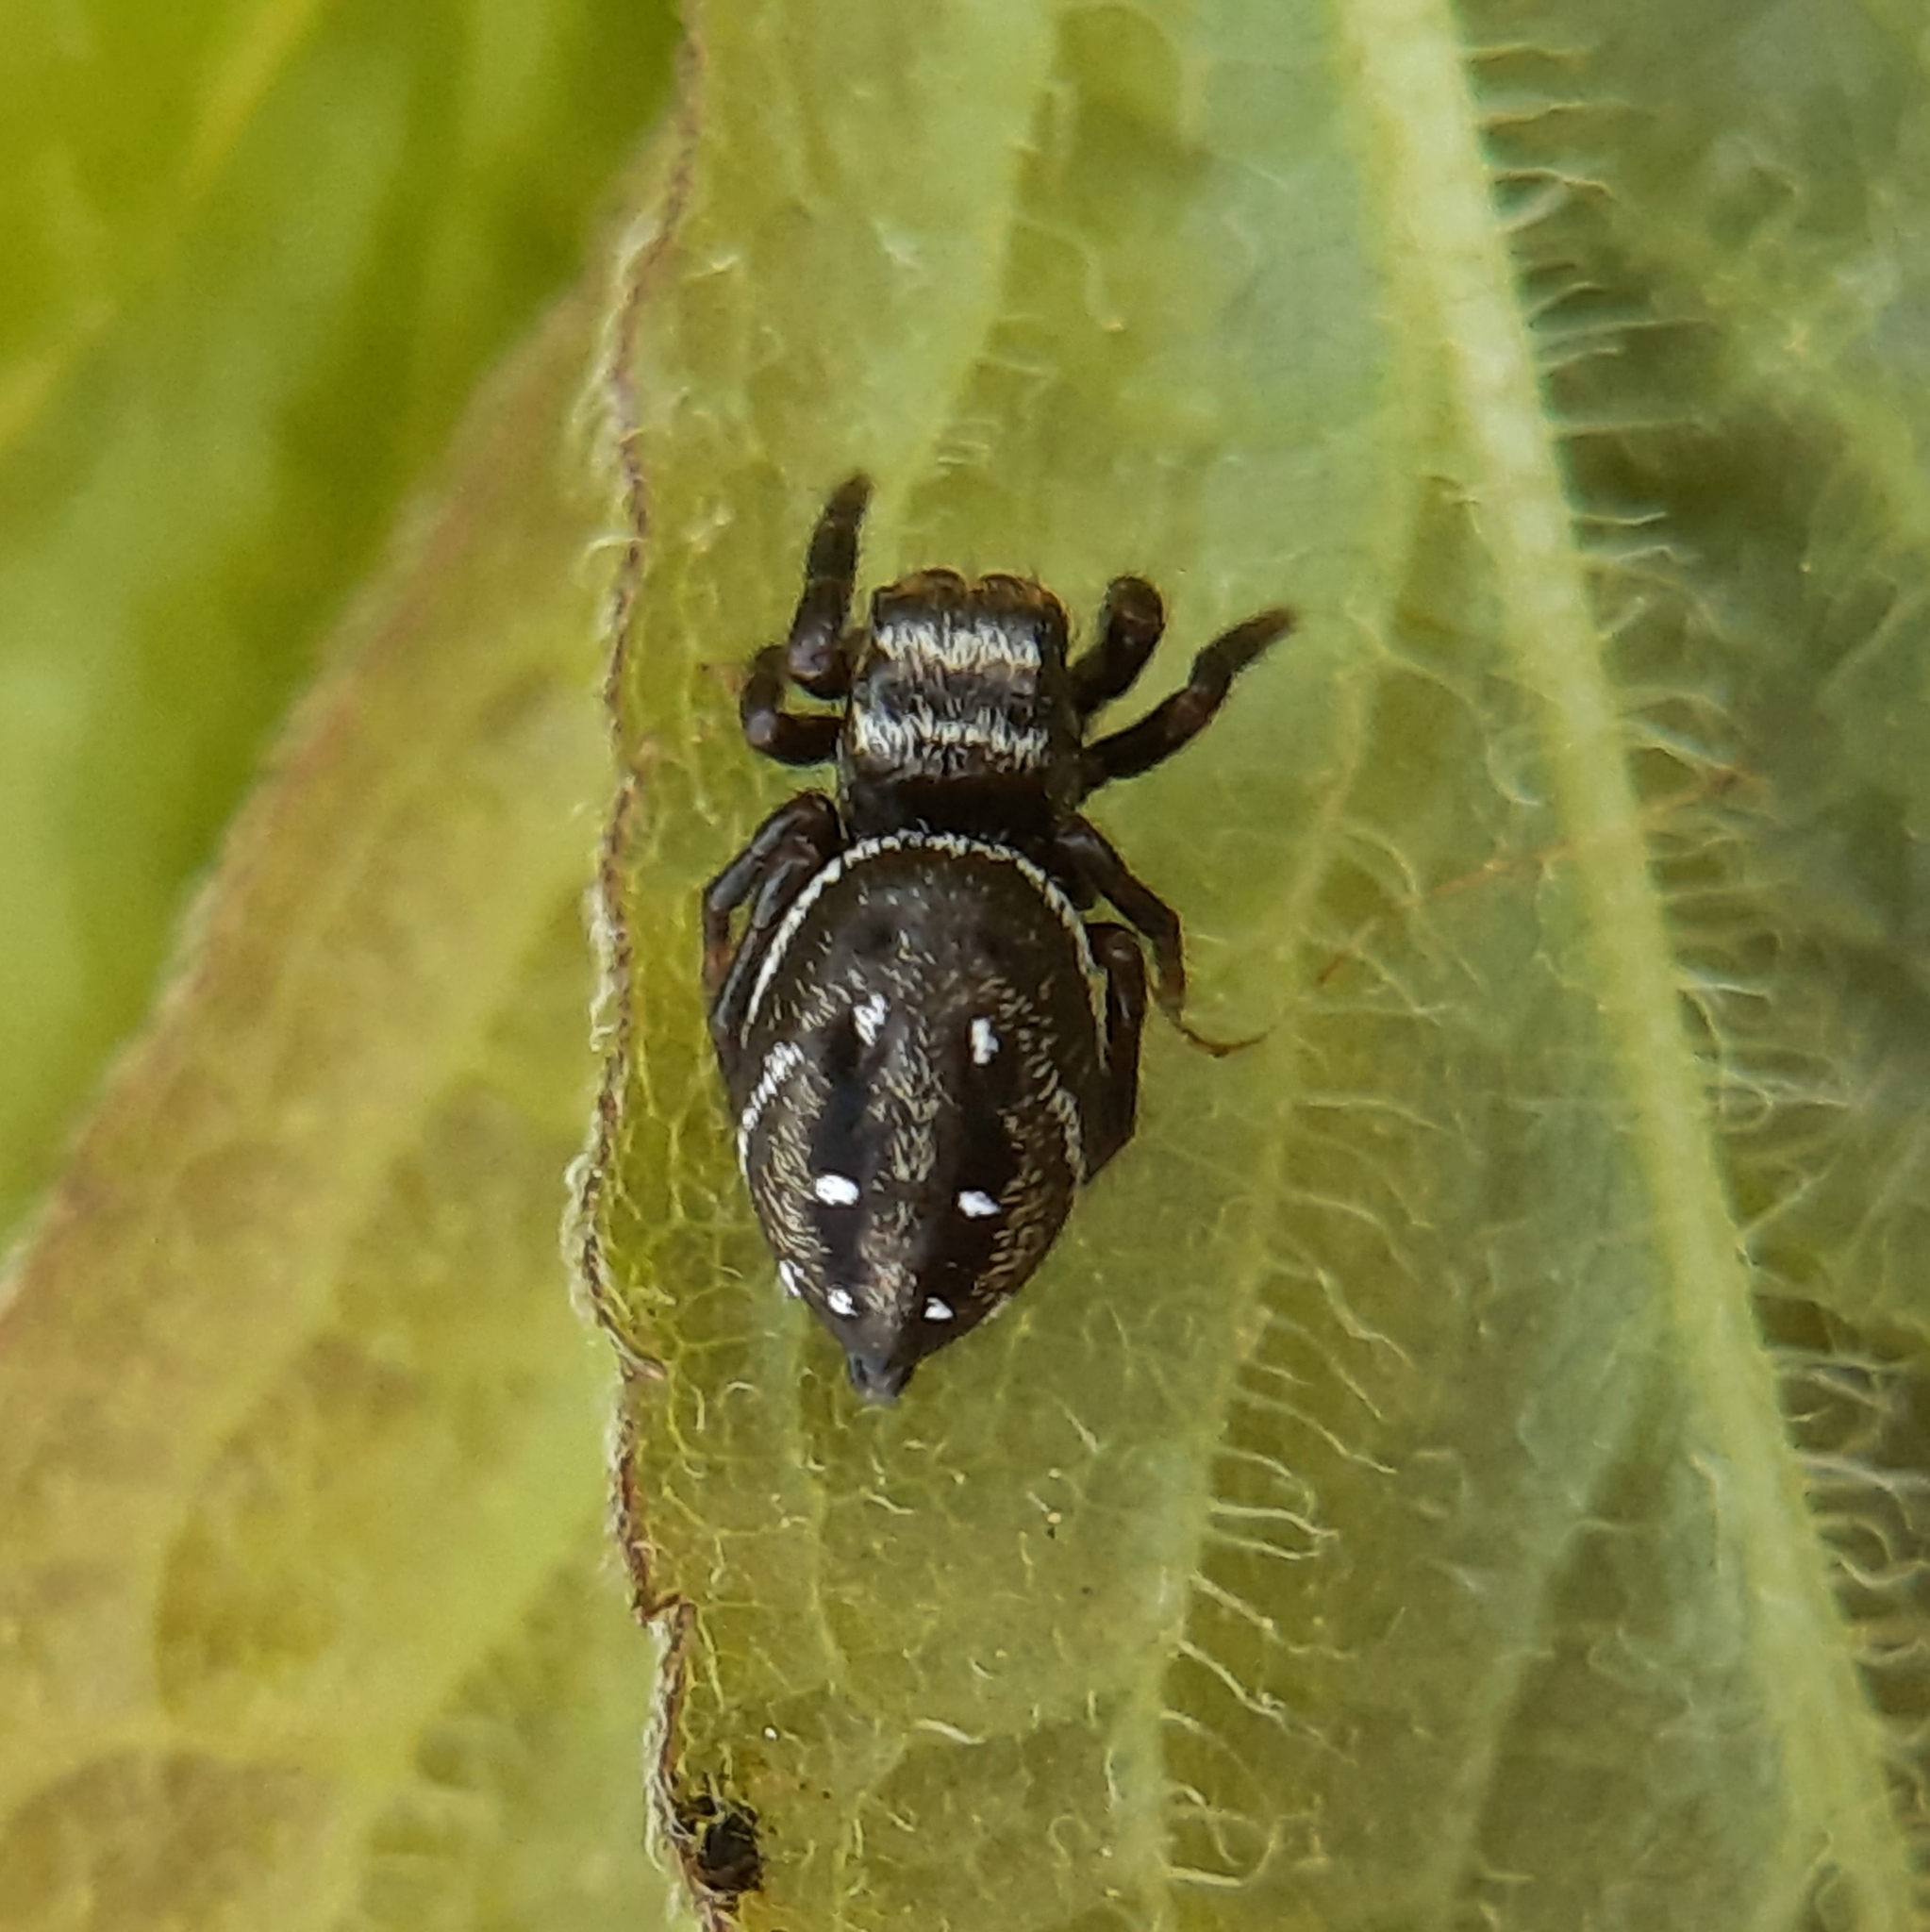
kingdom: Animalia
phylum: Arthropoda
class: Arachnida
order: Araneae
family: Salticidae
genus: Phidippus
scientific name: Phidippus clarus
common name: Brilliant jumping spider
